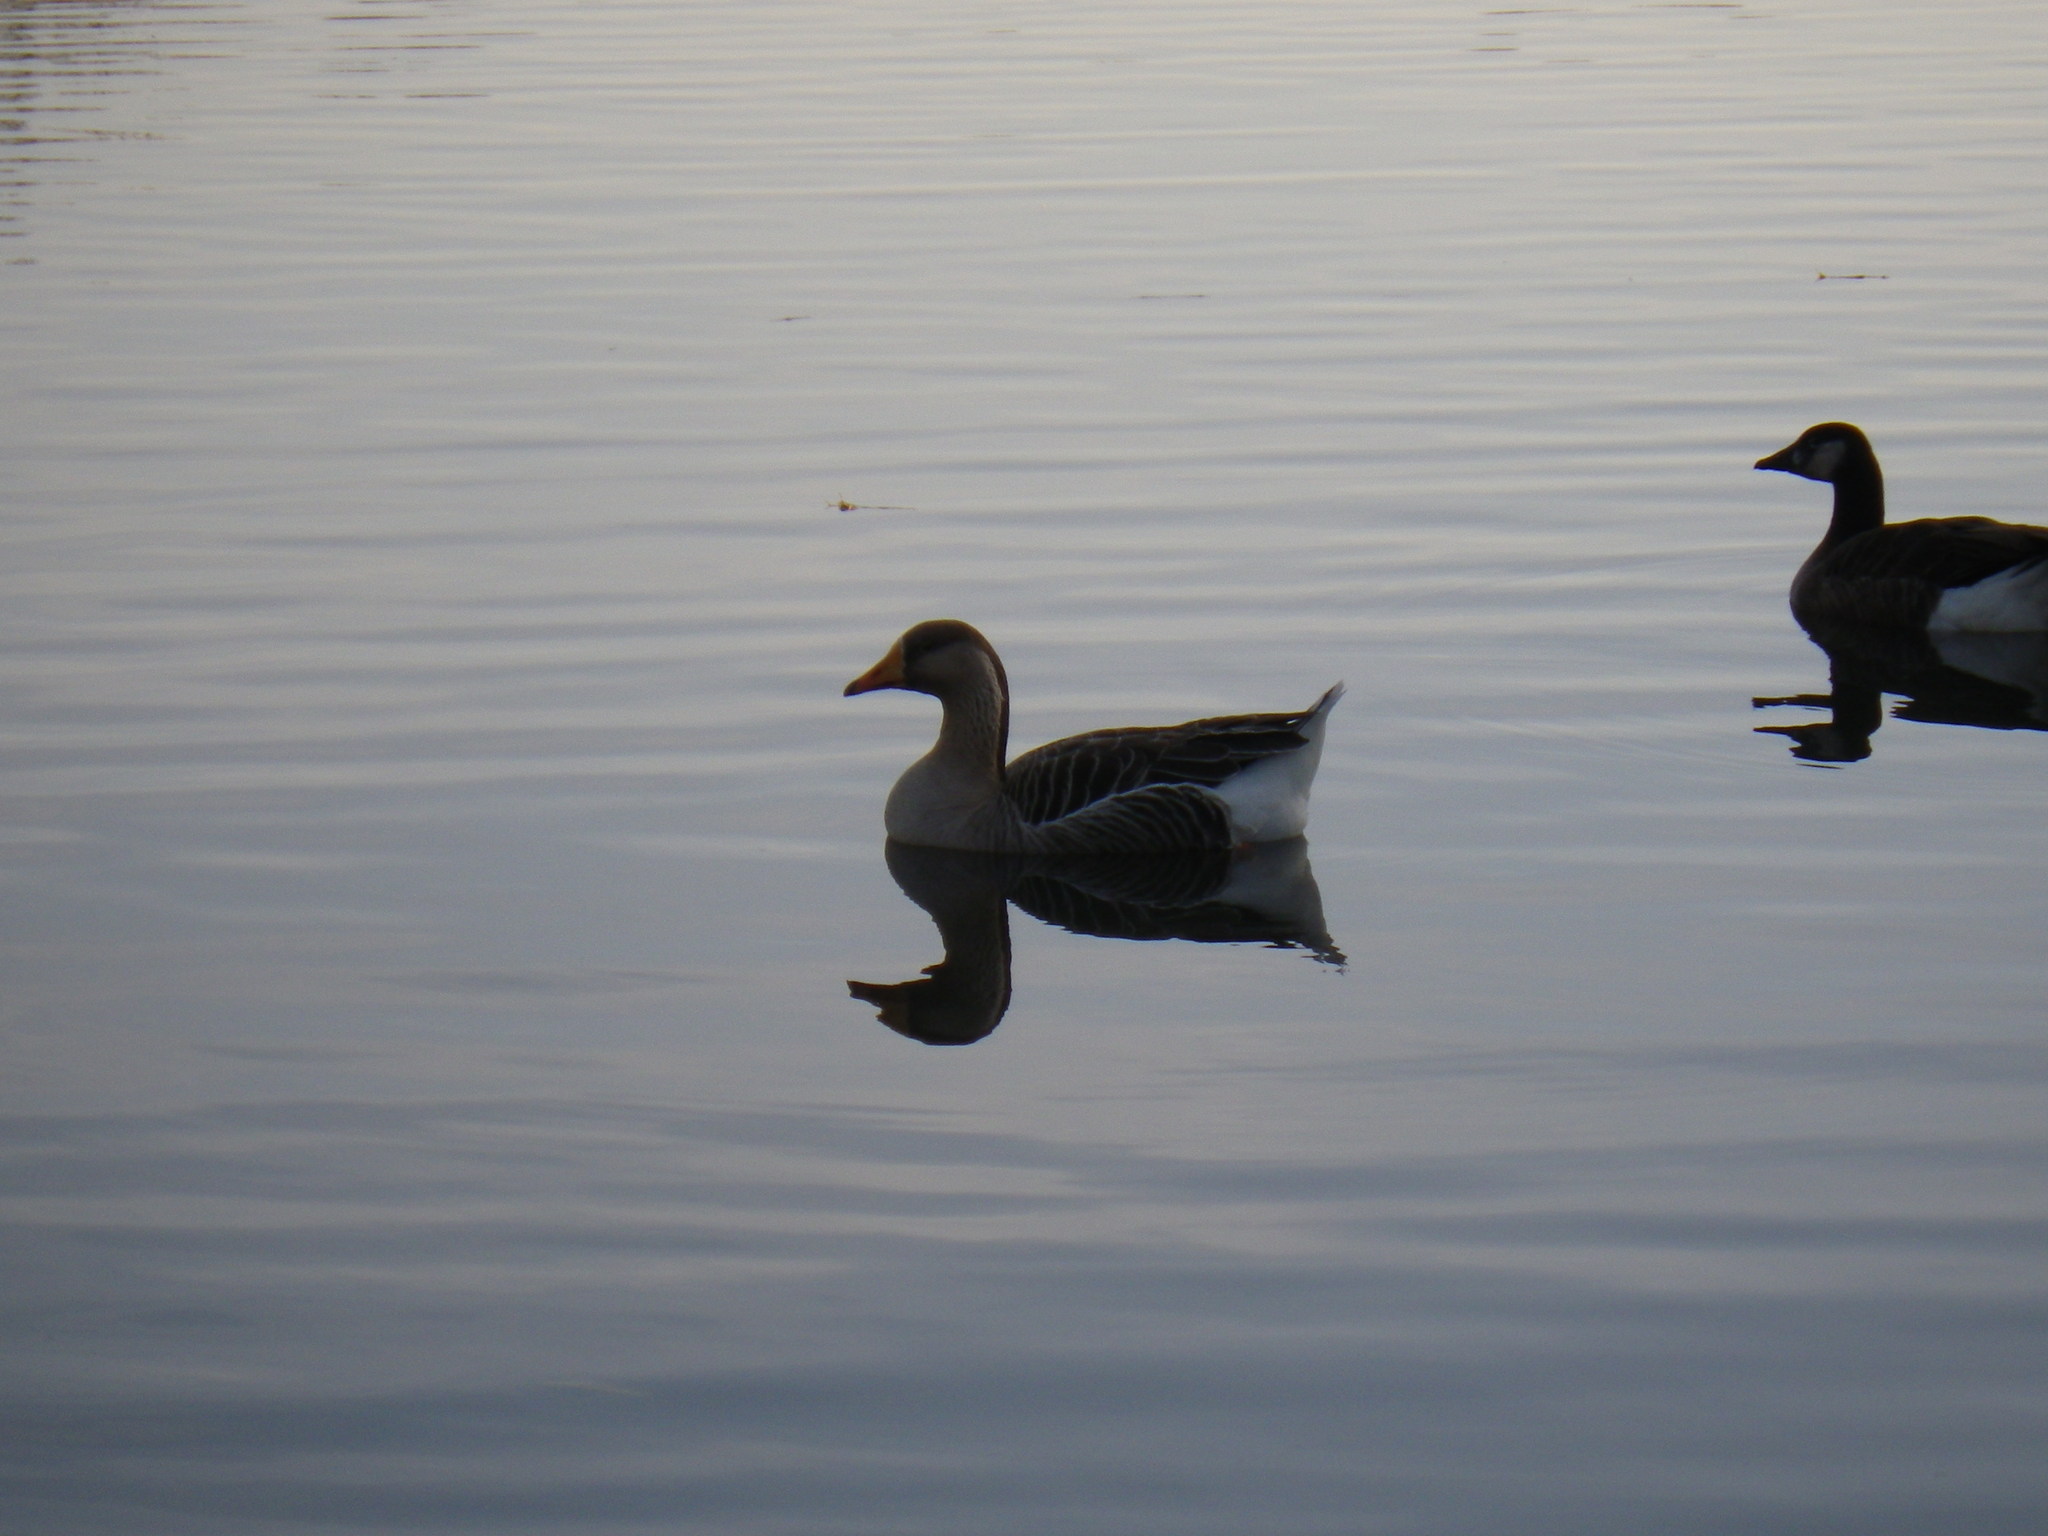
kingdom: Animalia
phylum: Chordata
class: Aves
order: Anseriformes
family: Anatidae
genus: Anser
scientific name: Anser
